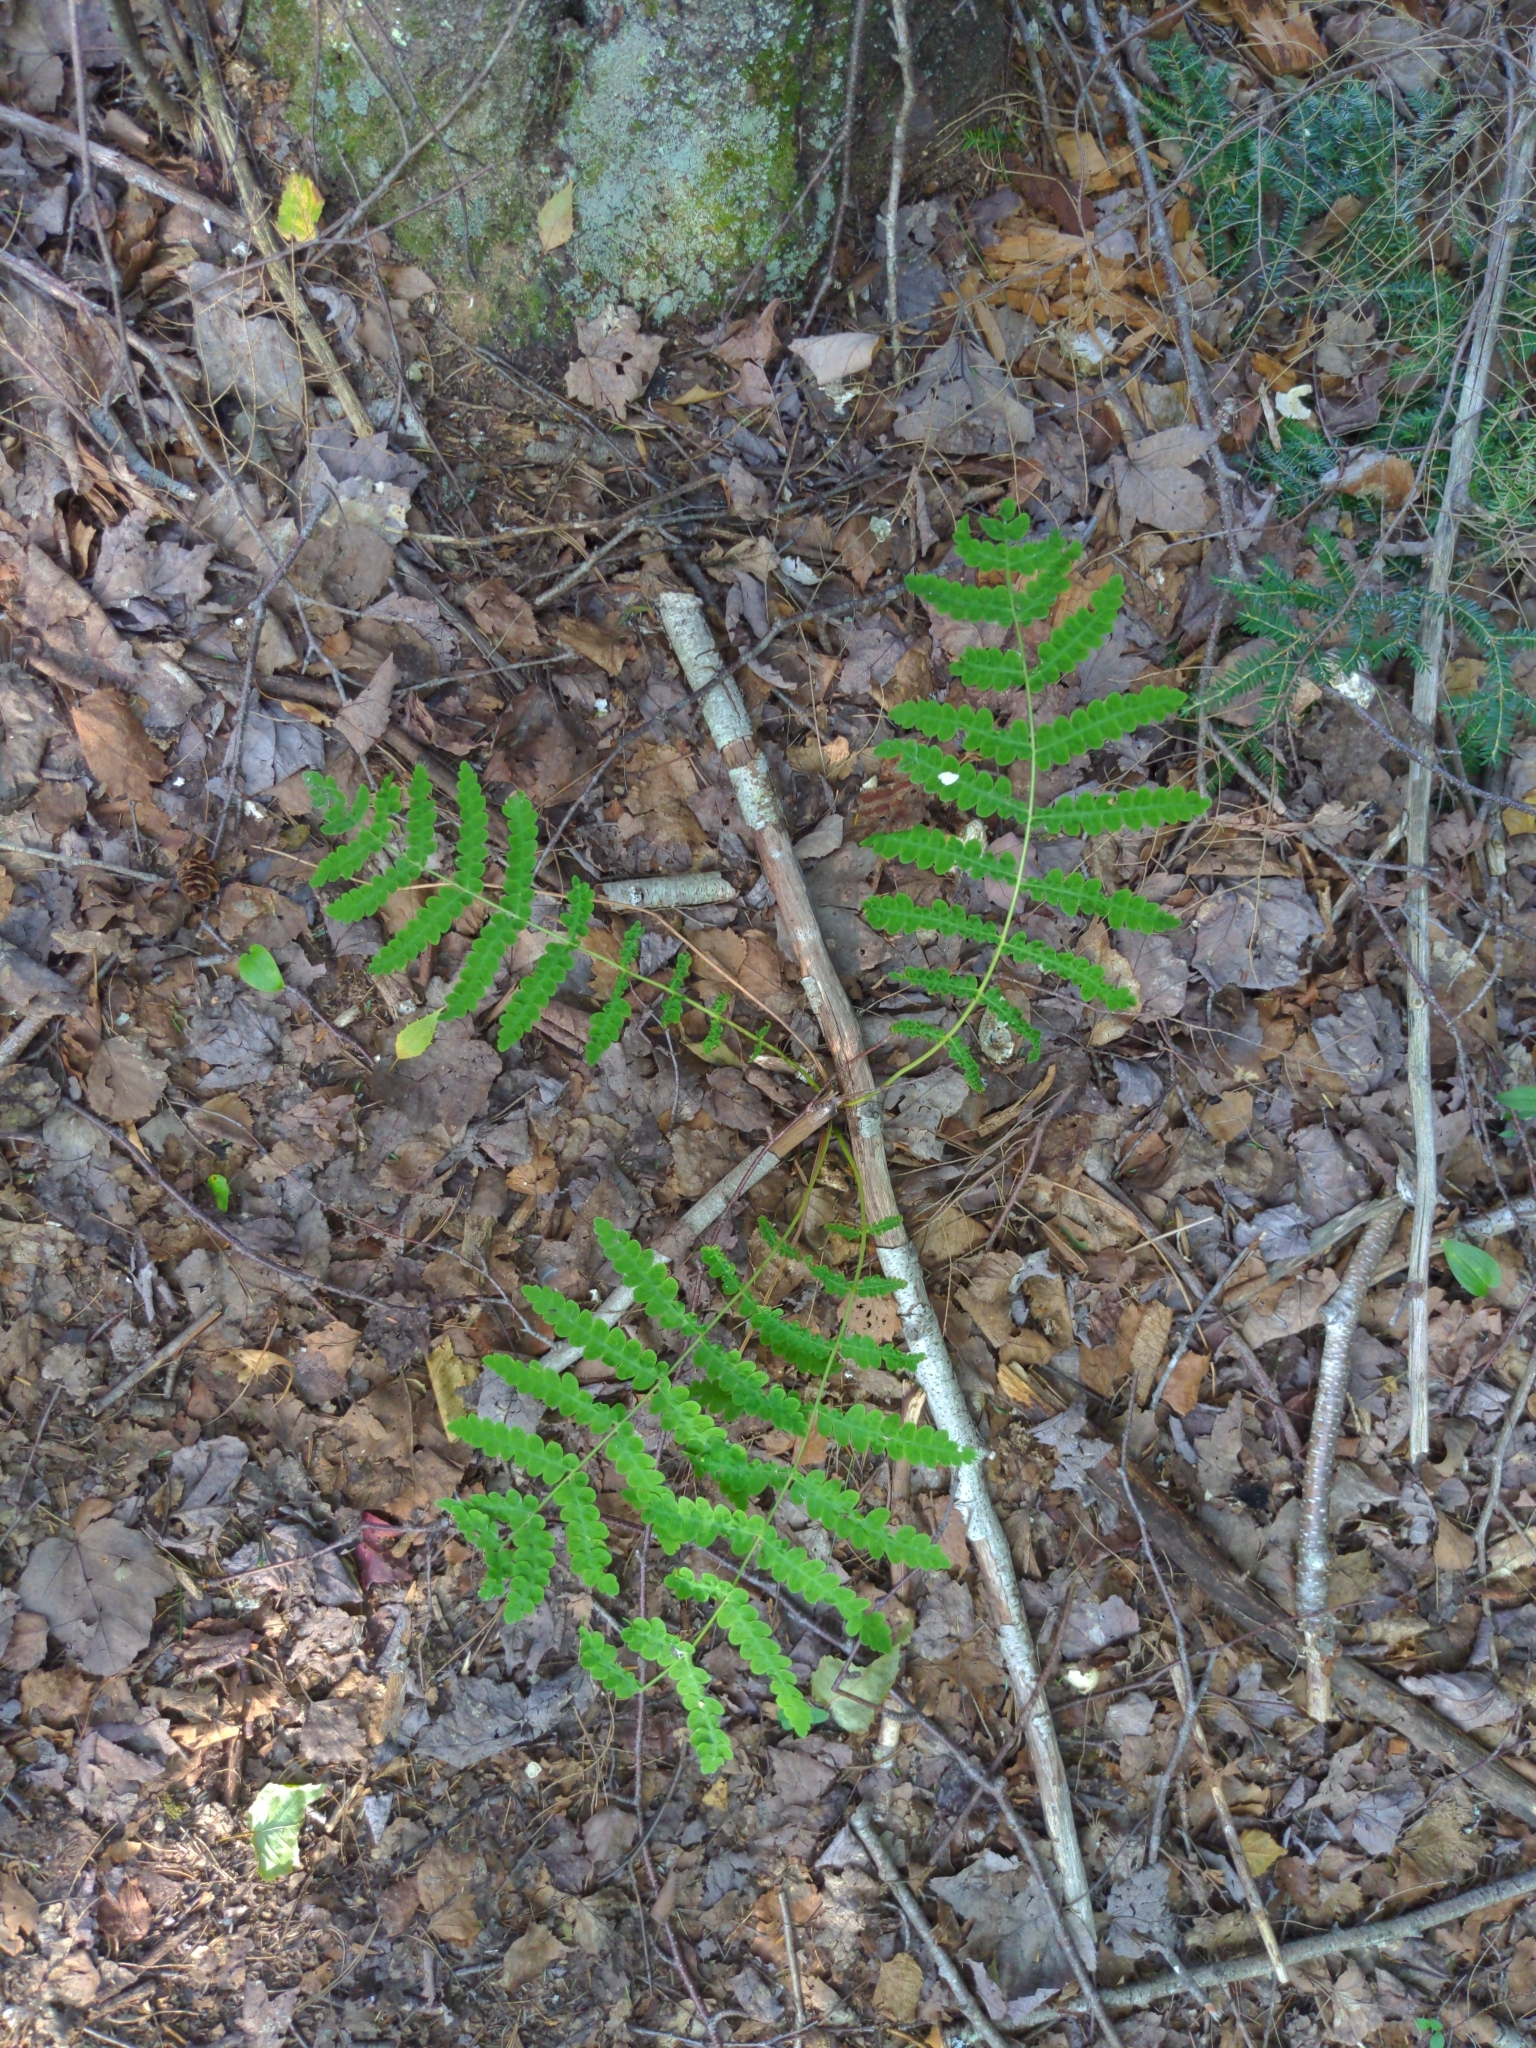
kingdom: Plantae
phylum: Tracheophyta
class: Polypodiopsida
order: Osmundales
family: Osmundaceae
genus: Claytosmunda
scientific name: Claytosmunda claytoniana
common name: Clayton's fern
